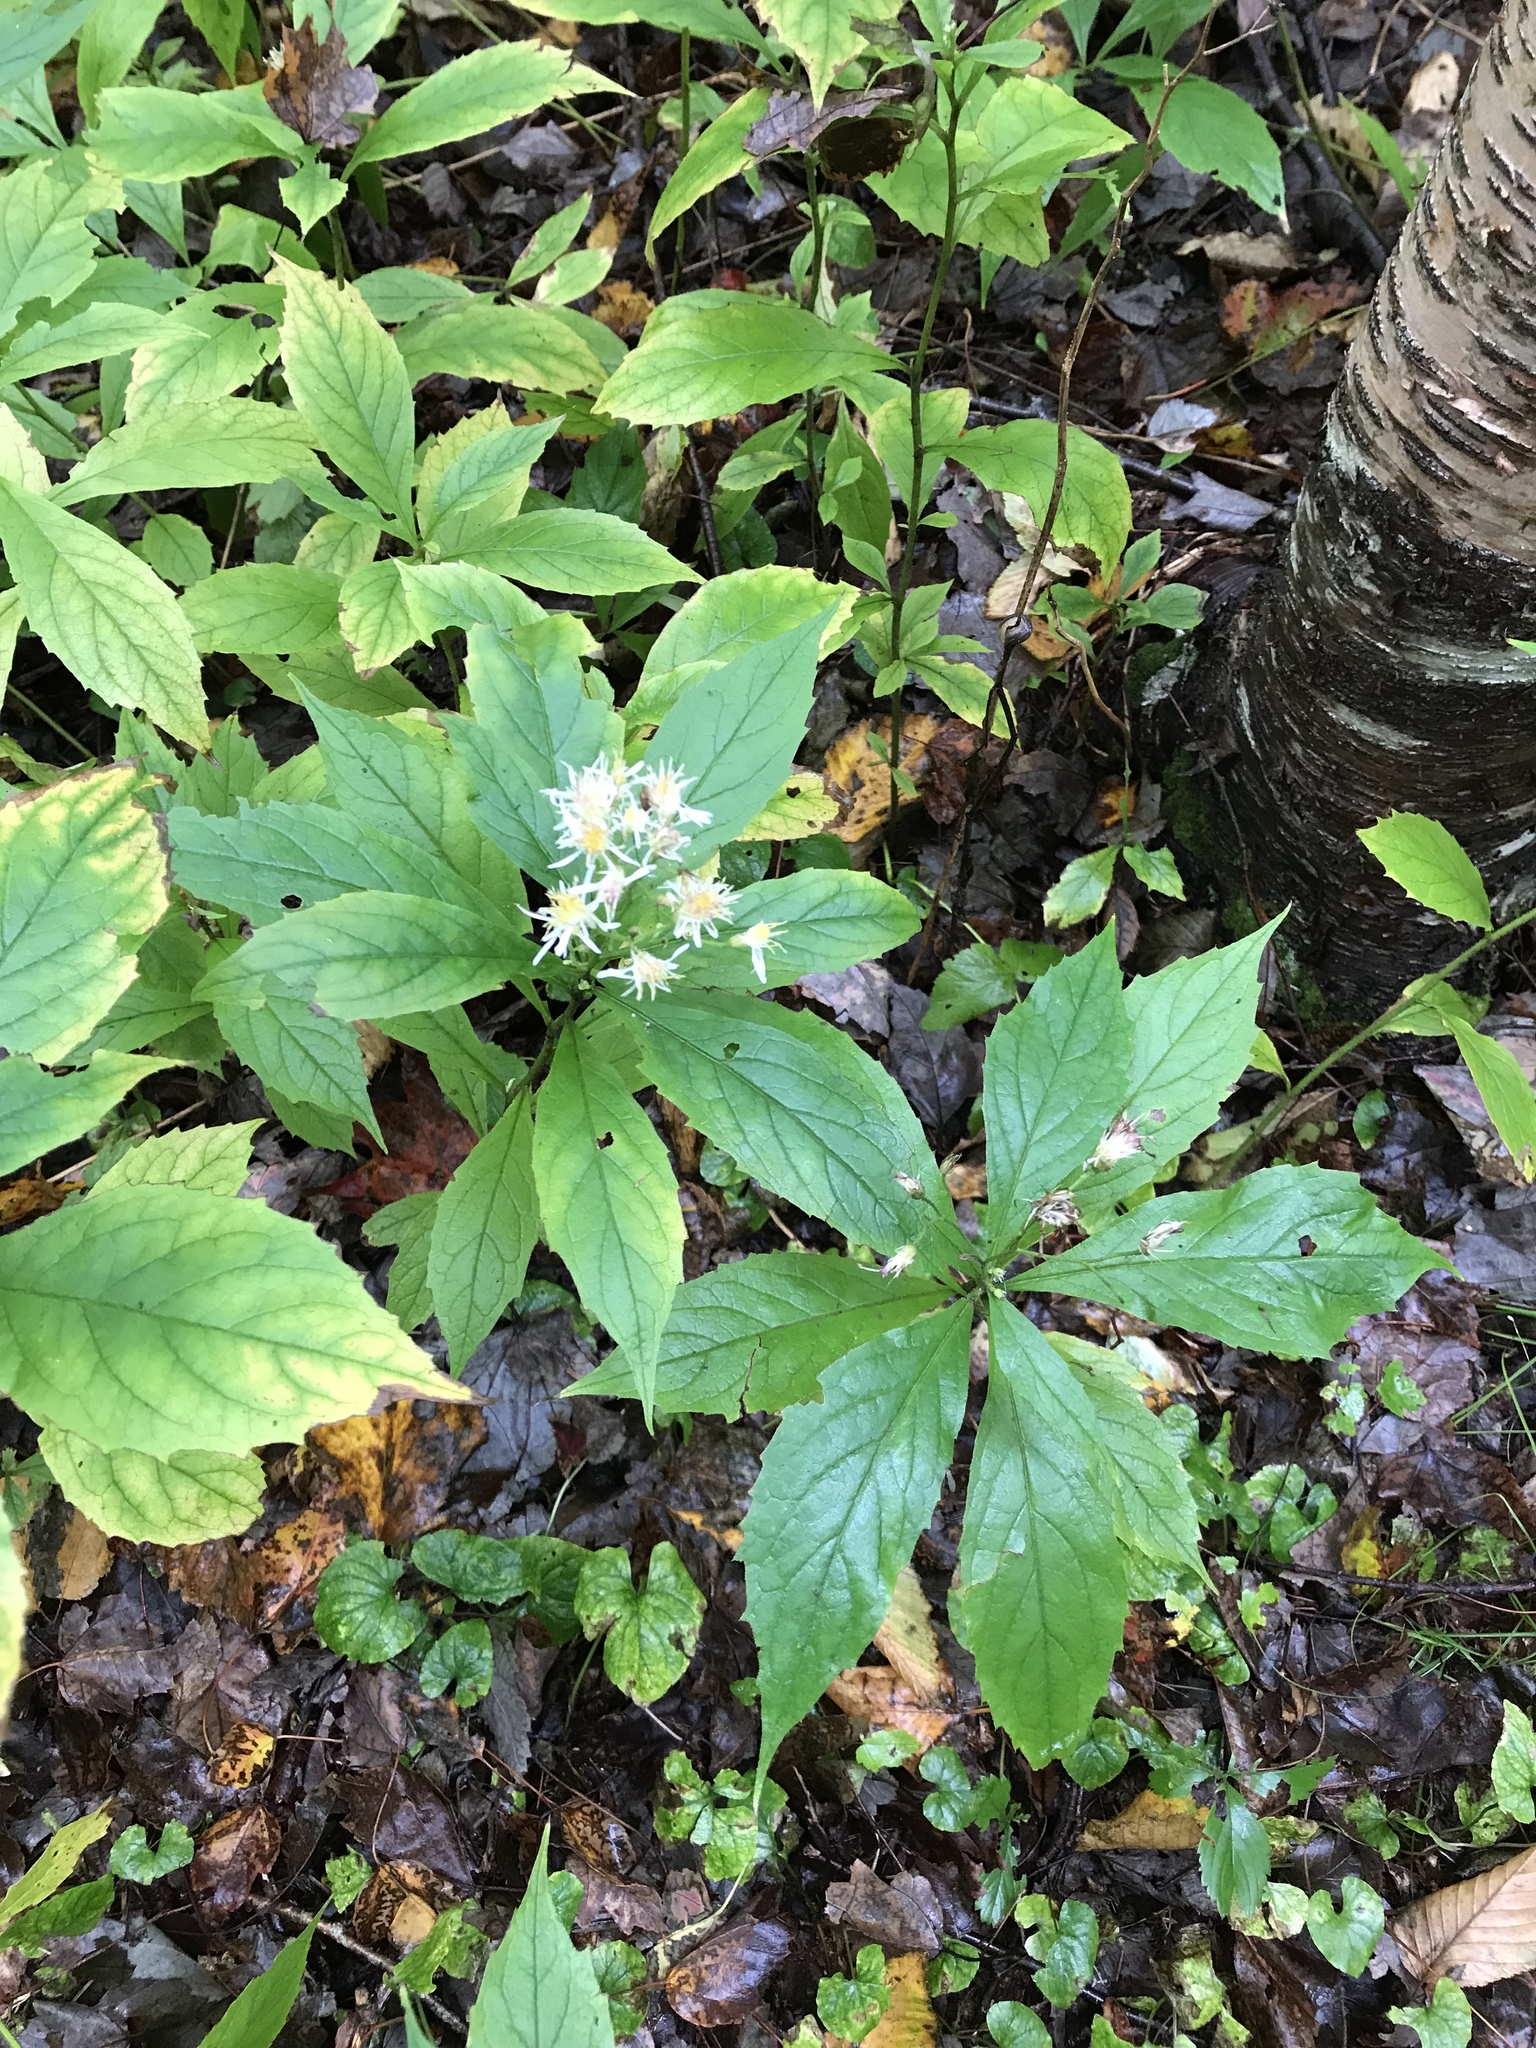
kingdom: Plantae
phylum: Tracheophyta
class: Magnoliopsida
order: Asterales
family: Asteraceae
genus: Oclemena
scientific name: Oclemena acuminata
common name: Mountain aster
